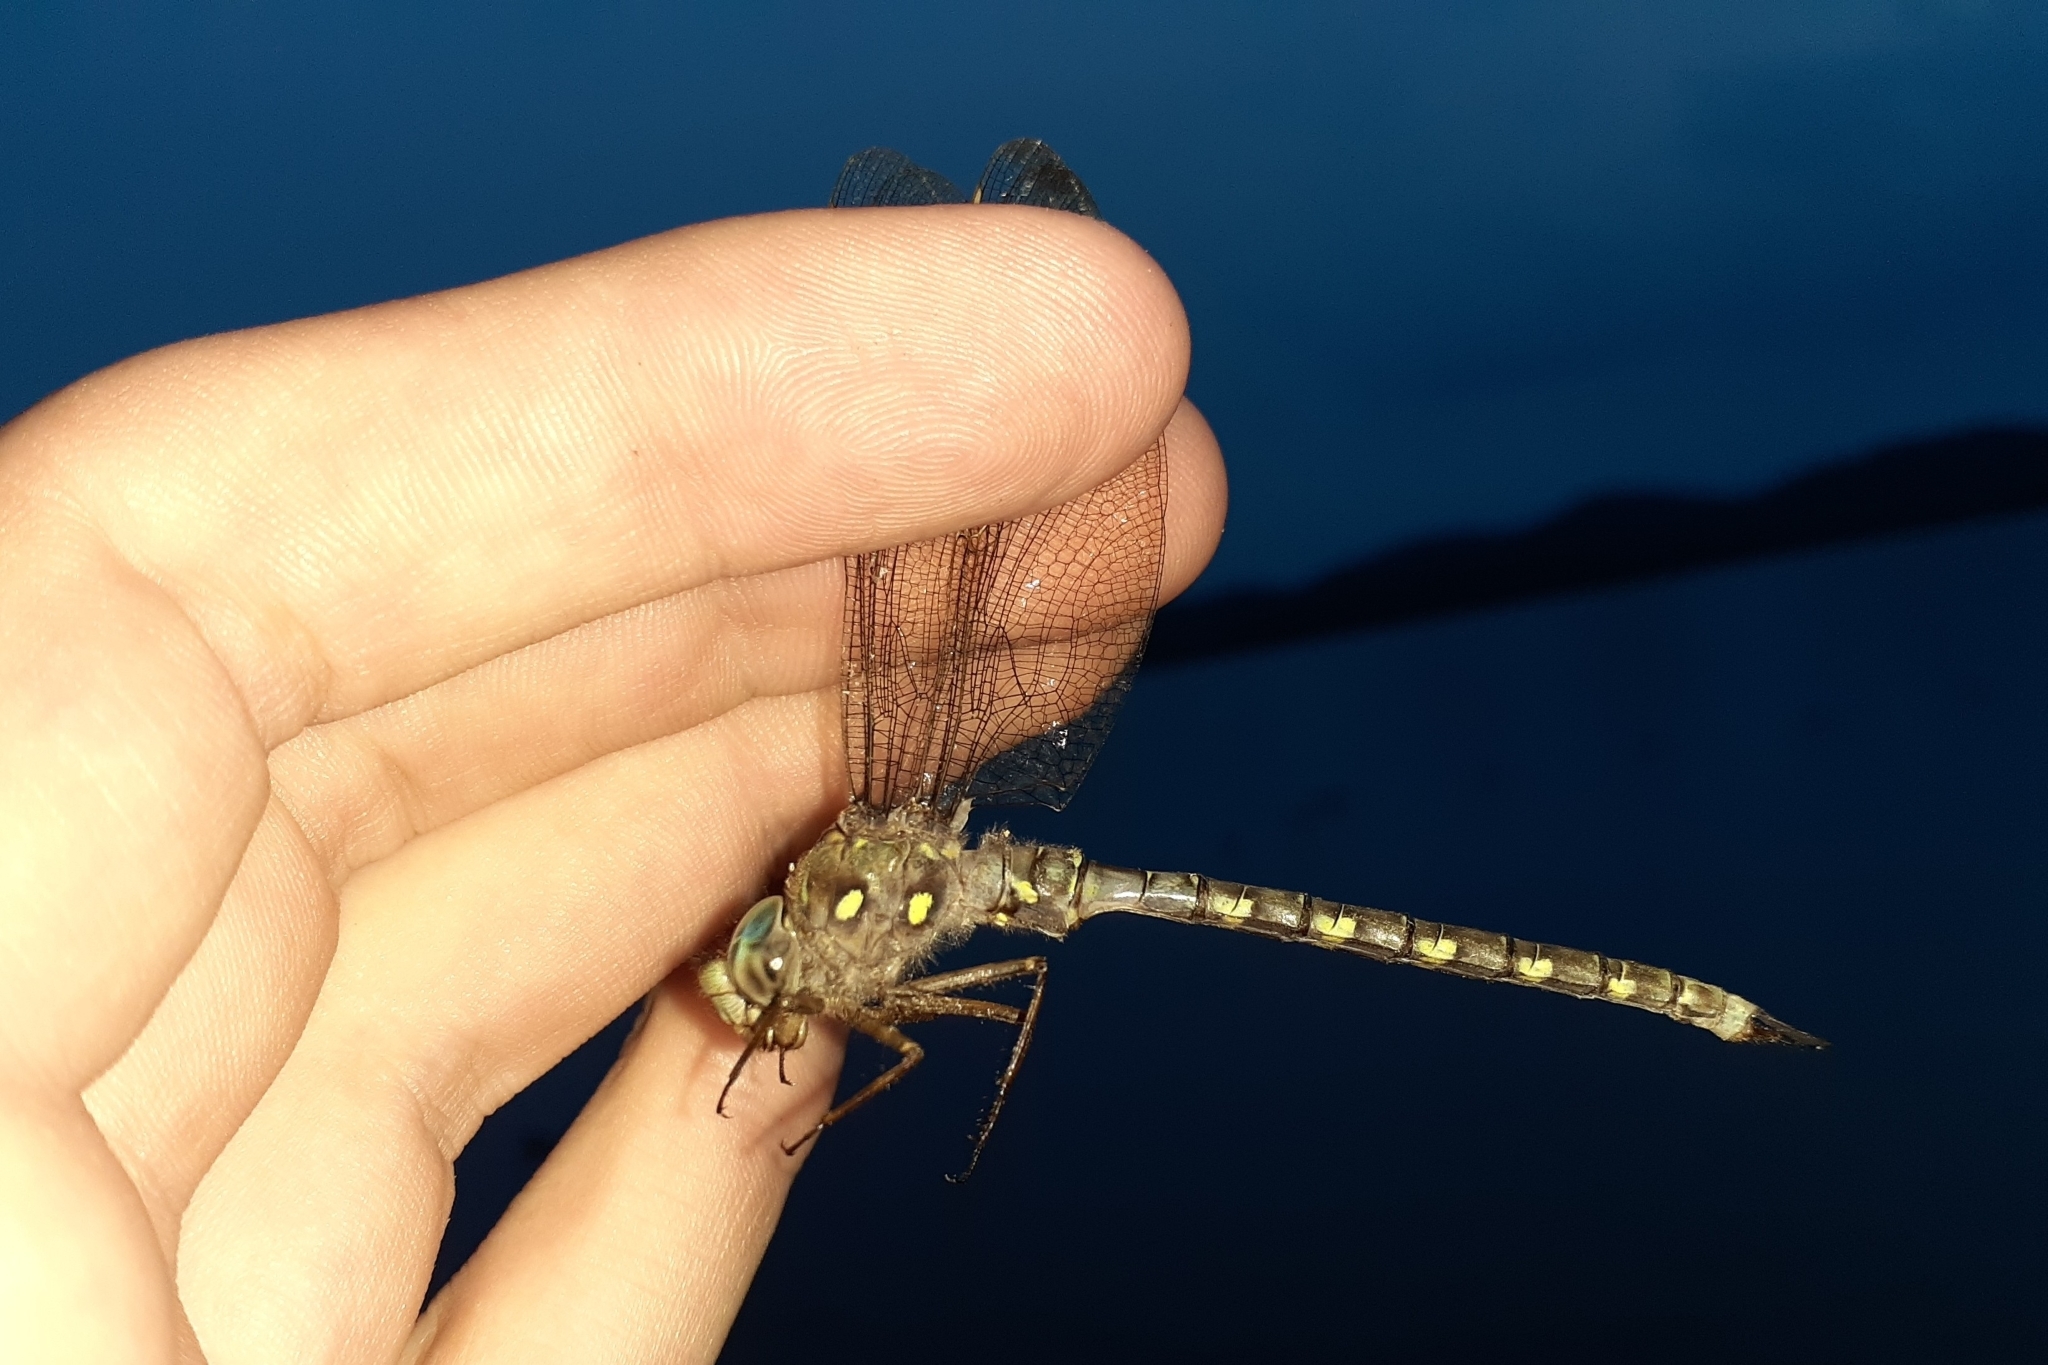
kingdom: Animalia
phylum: Arthropoda
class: Insecta
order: Odonata
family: Aeshnidae
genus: Boyeria
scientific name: Boyeria grafiana
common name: Ocellated darner
